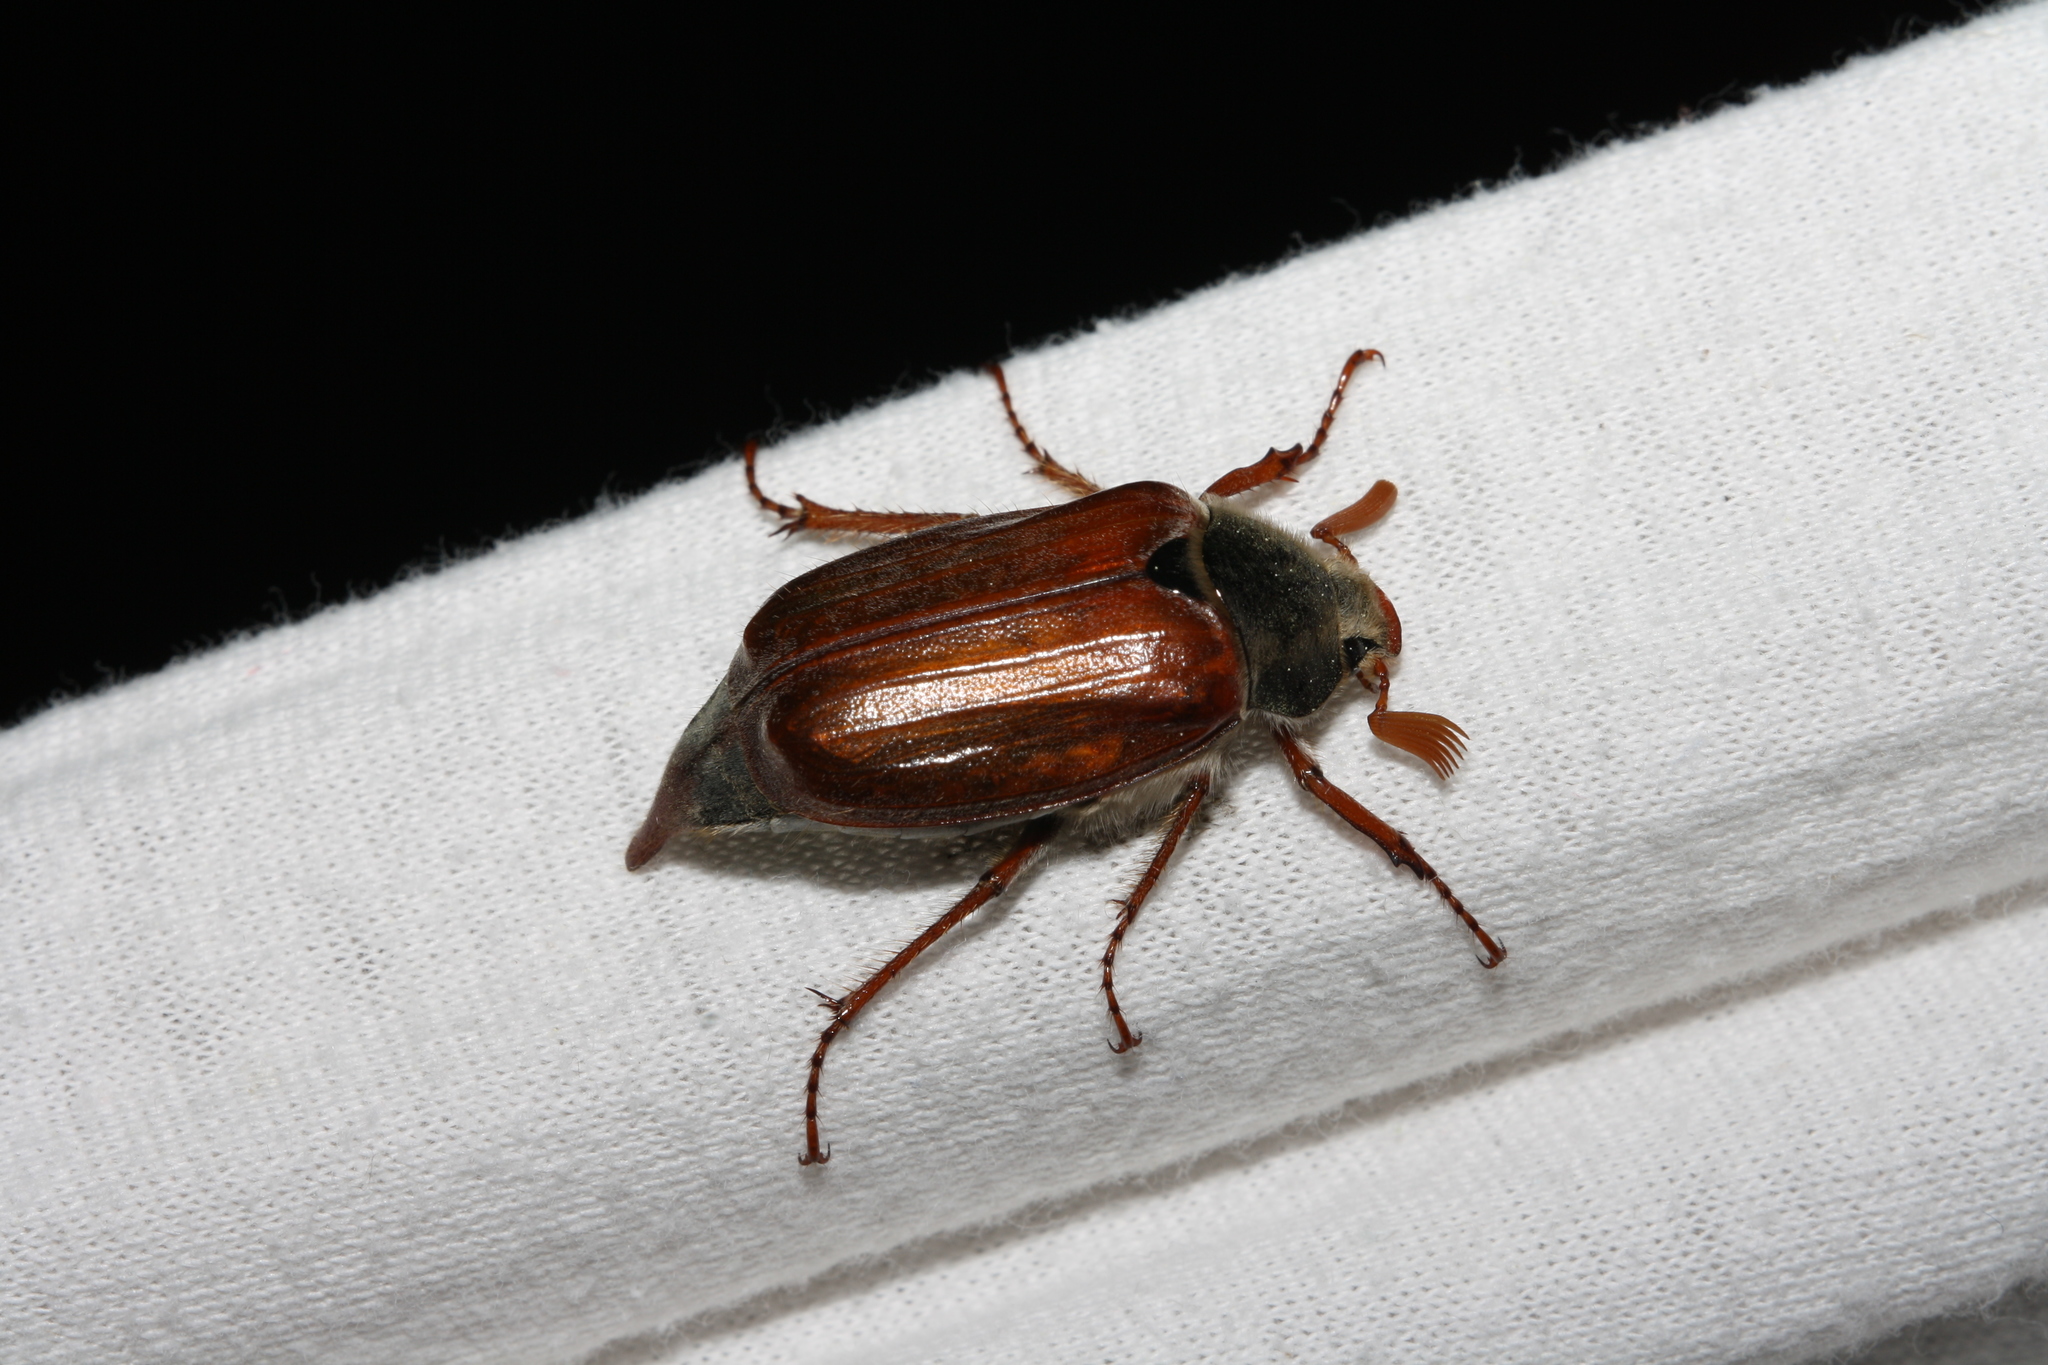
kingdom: Animalia
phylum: Arthropoda
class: Insecta
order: Coleoptera
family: Scarabaeidae
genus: Melolontha
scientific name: Melolontha melolontha
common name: Cockchafer maybeetle
